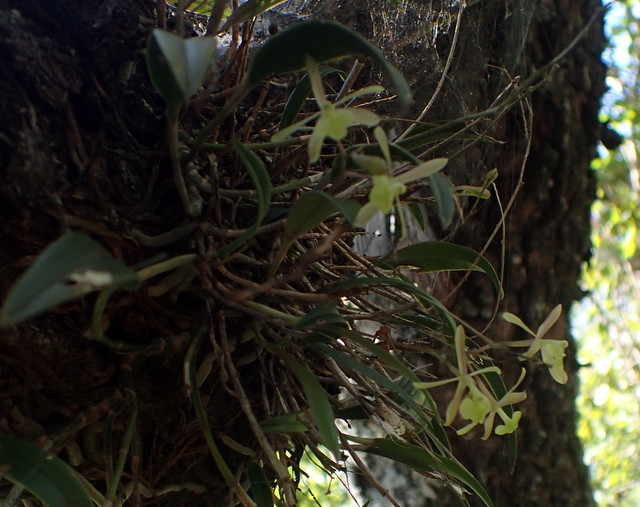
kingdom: Plantae
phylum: Tracheophyta
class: Liliopsida
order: Asparagales
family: Orchidaceae
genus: Epidendrum
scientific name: Epidendrum conopseum
